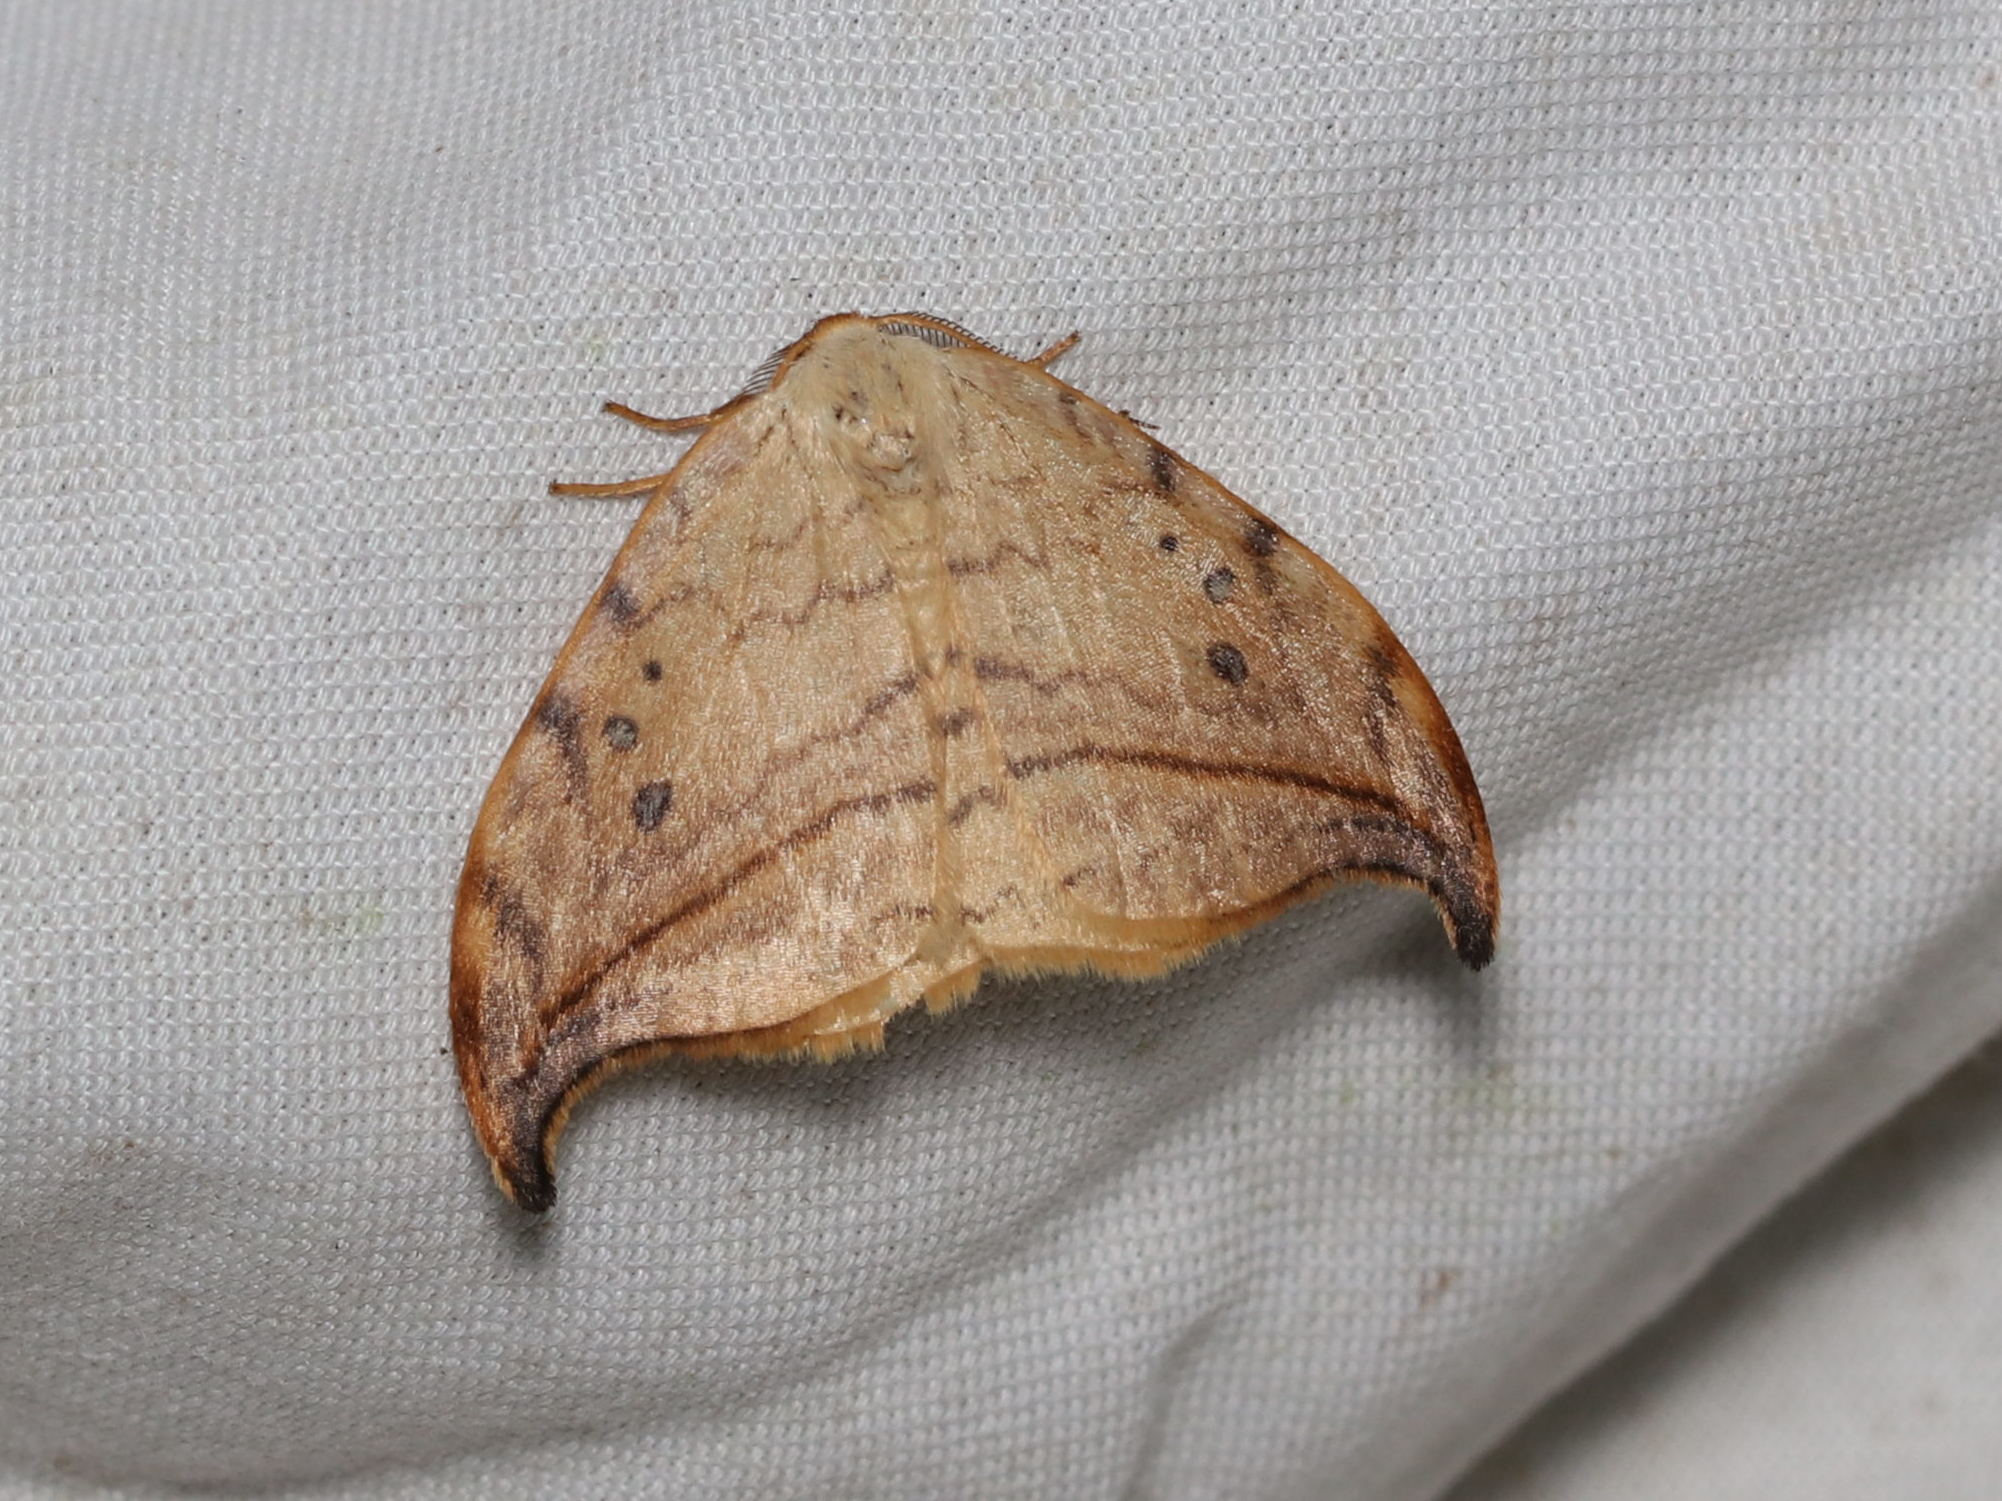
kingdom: Animalia
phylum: Arthropoda
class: Insecta
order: Lepidoptera
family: Drepanidae
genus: Drepana
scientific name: Drepana arcuata
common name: Arched hooktip moth
